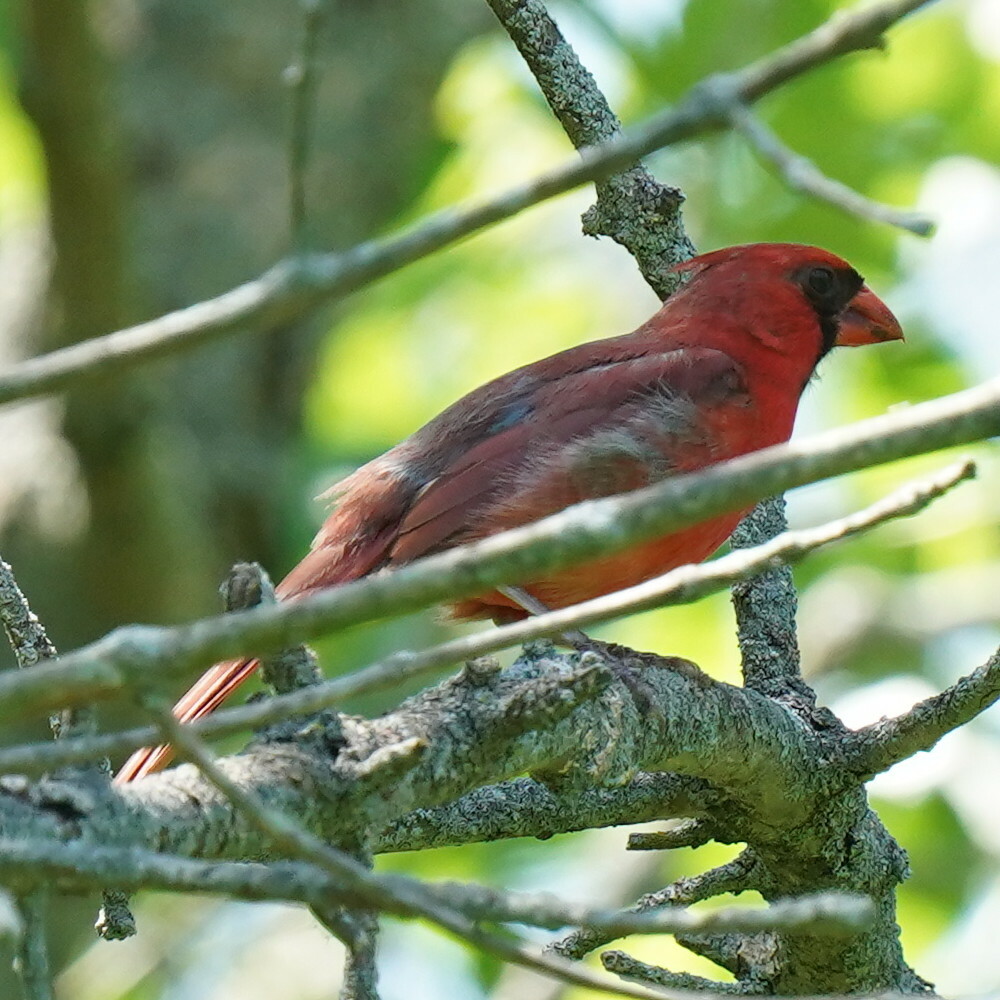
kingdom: Animalia
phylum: Chordata
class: Aves
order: Passeriformes
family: Cardinalidae
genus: Cardinalis
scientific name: Cardinalis cardinalis
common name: Northern cardinal
